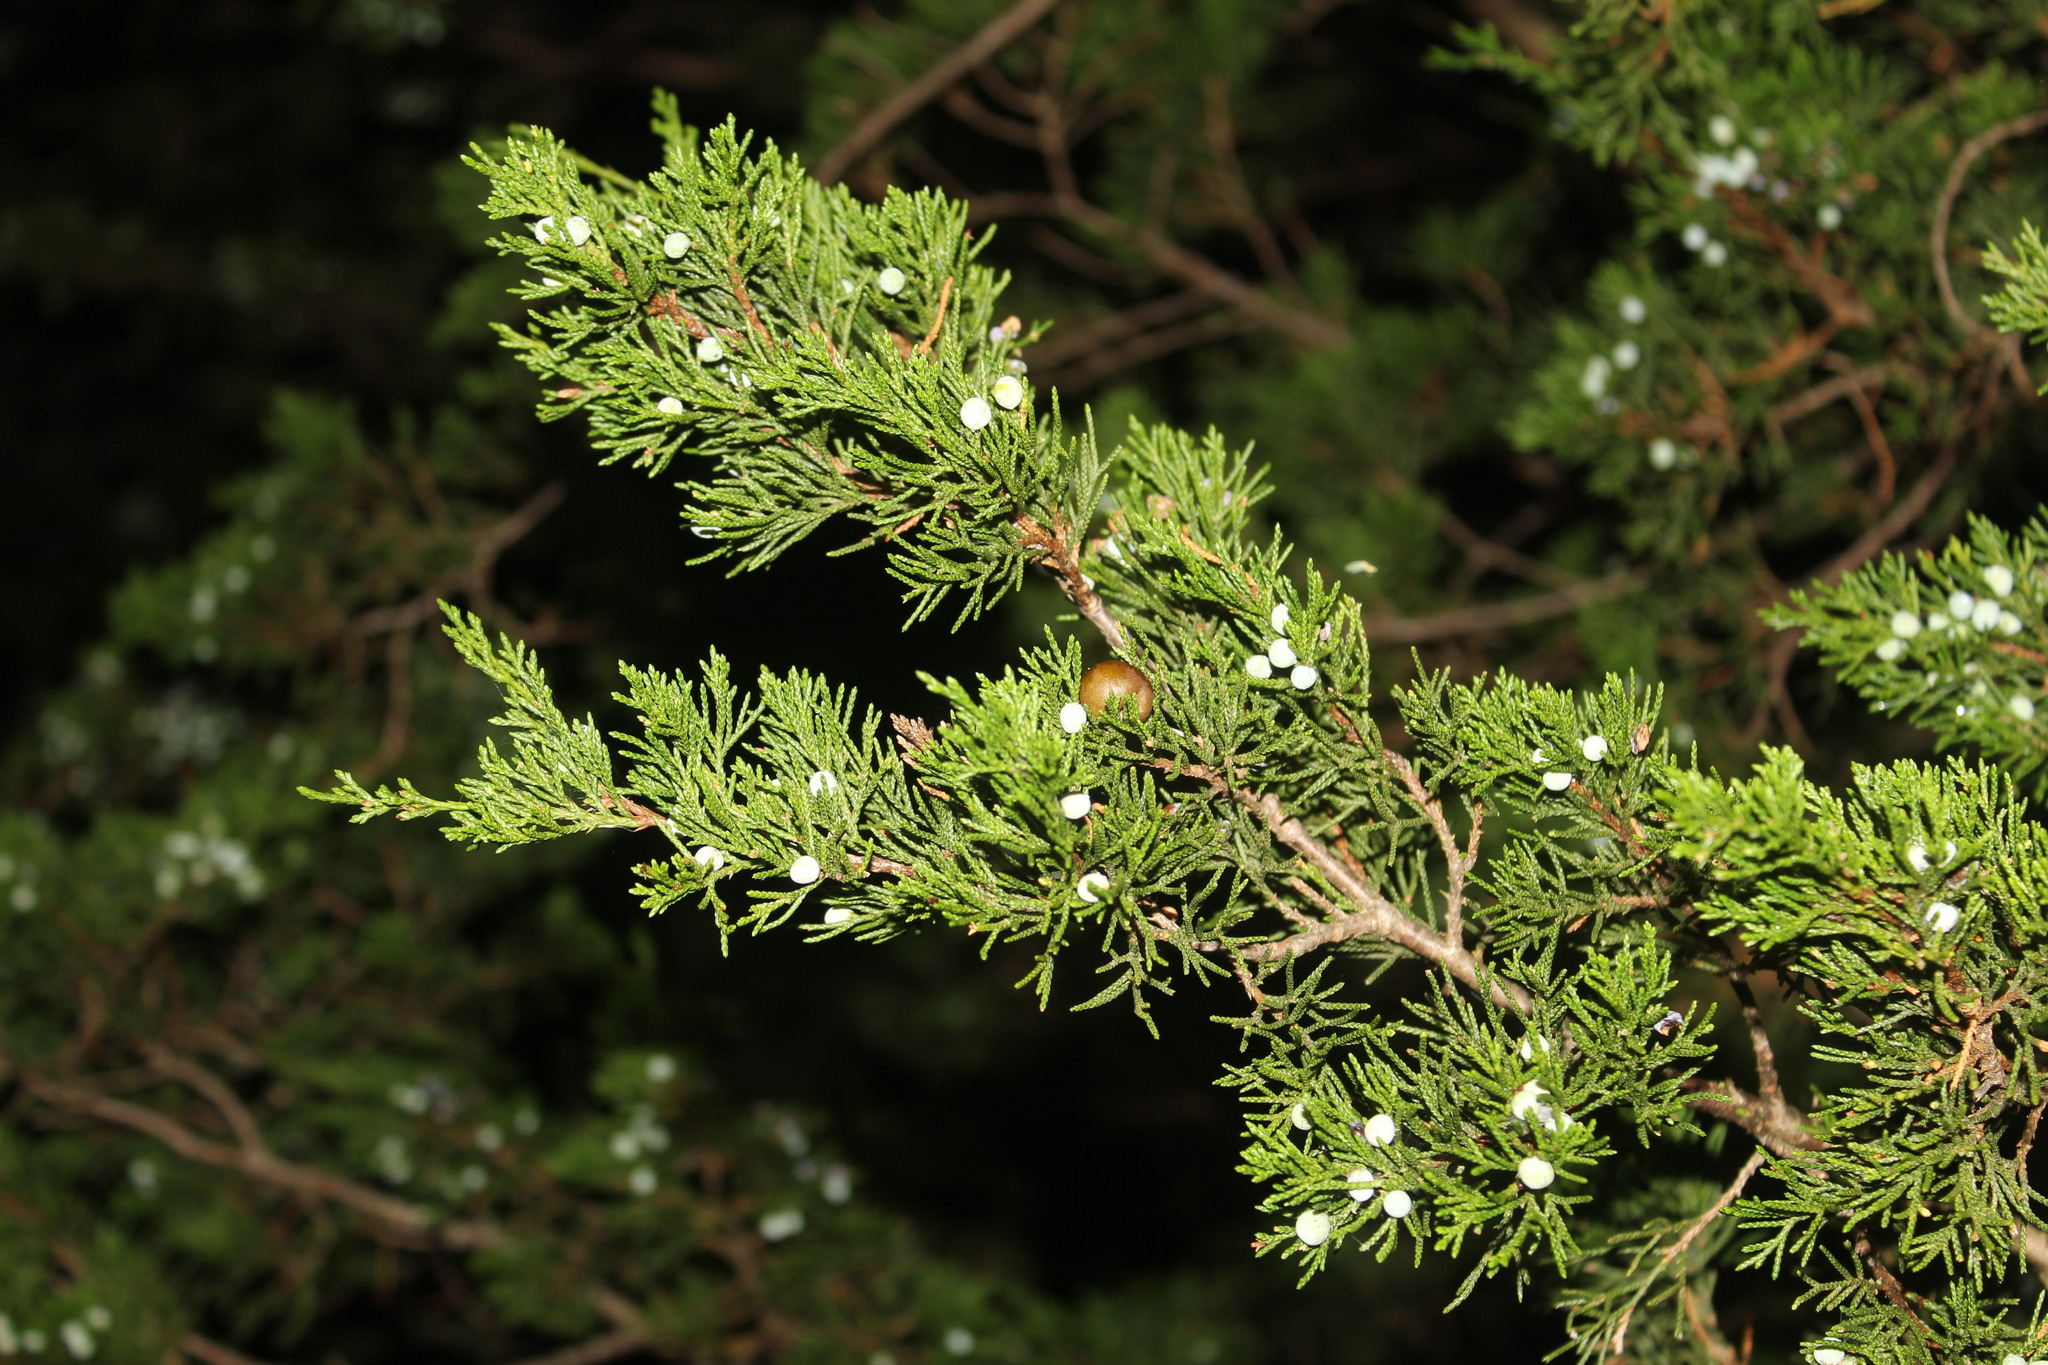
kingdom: Plantae
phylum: Tracheophyta
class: Pinopsida
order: Pinales
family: Cupressaceae
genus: Juniperus
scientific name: Juniperus virginiana
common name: Red juniper
